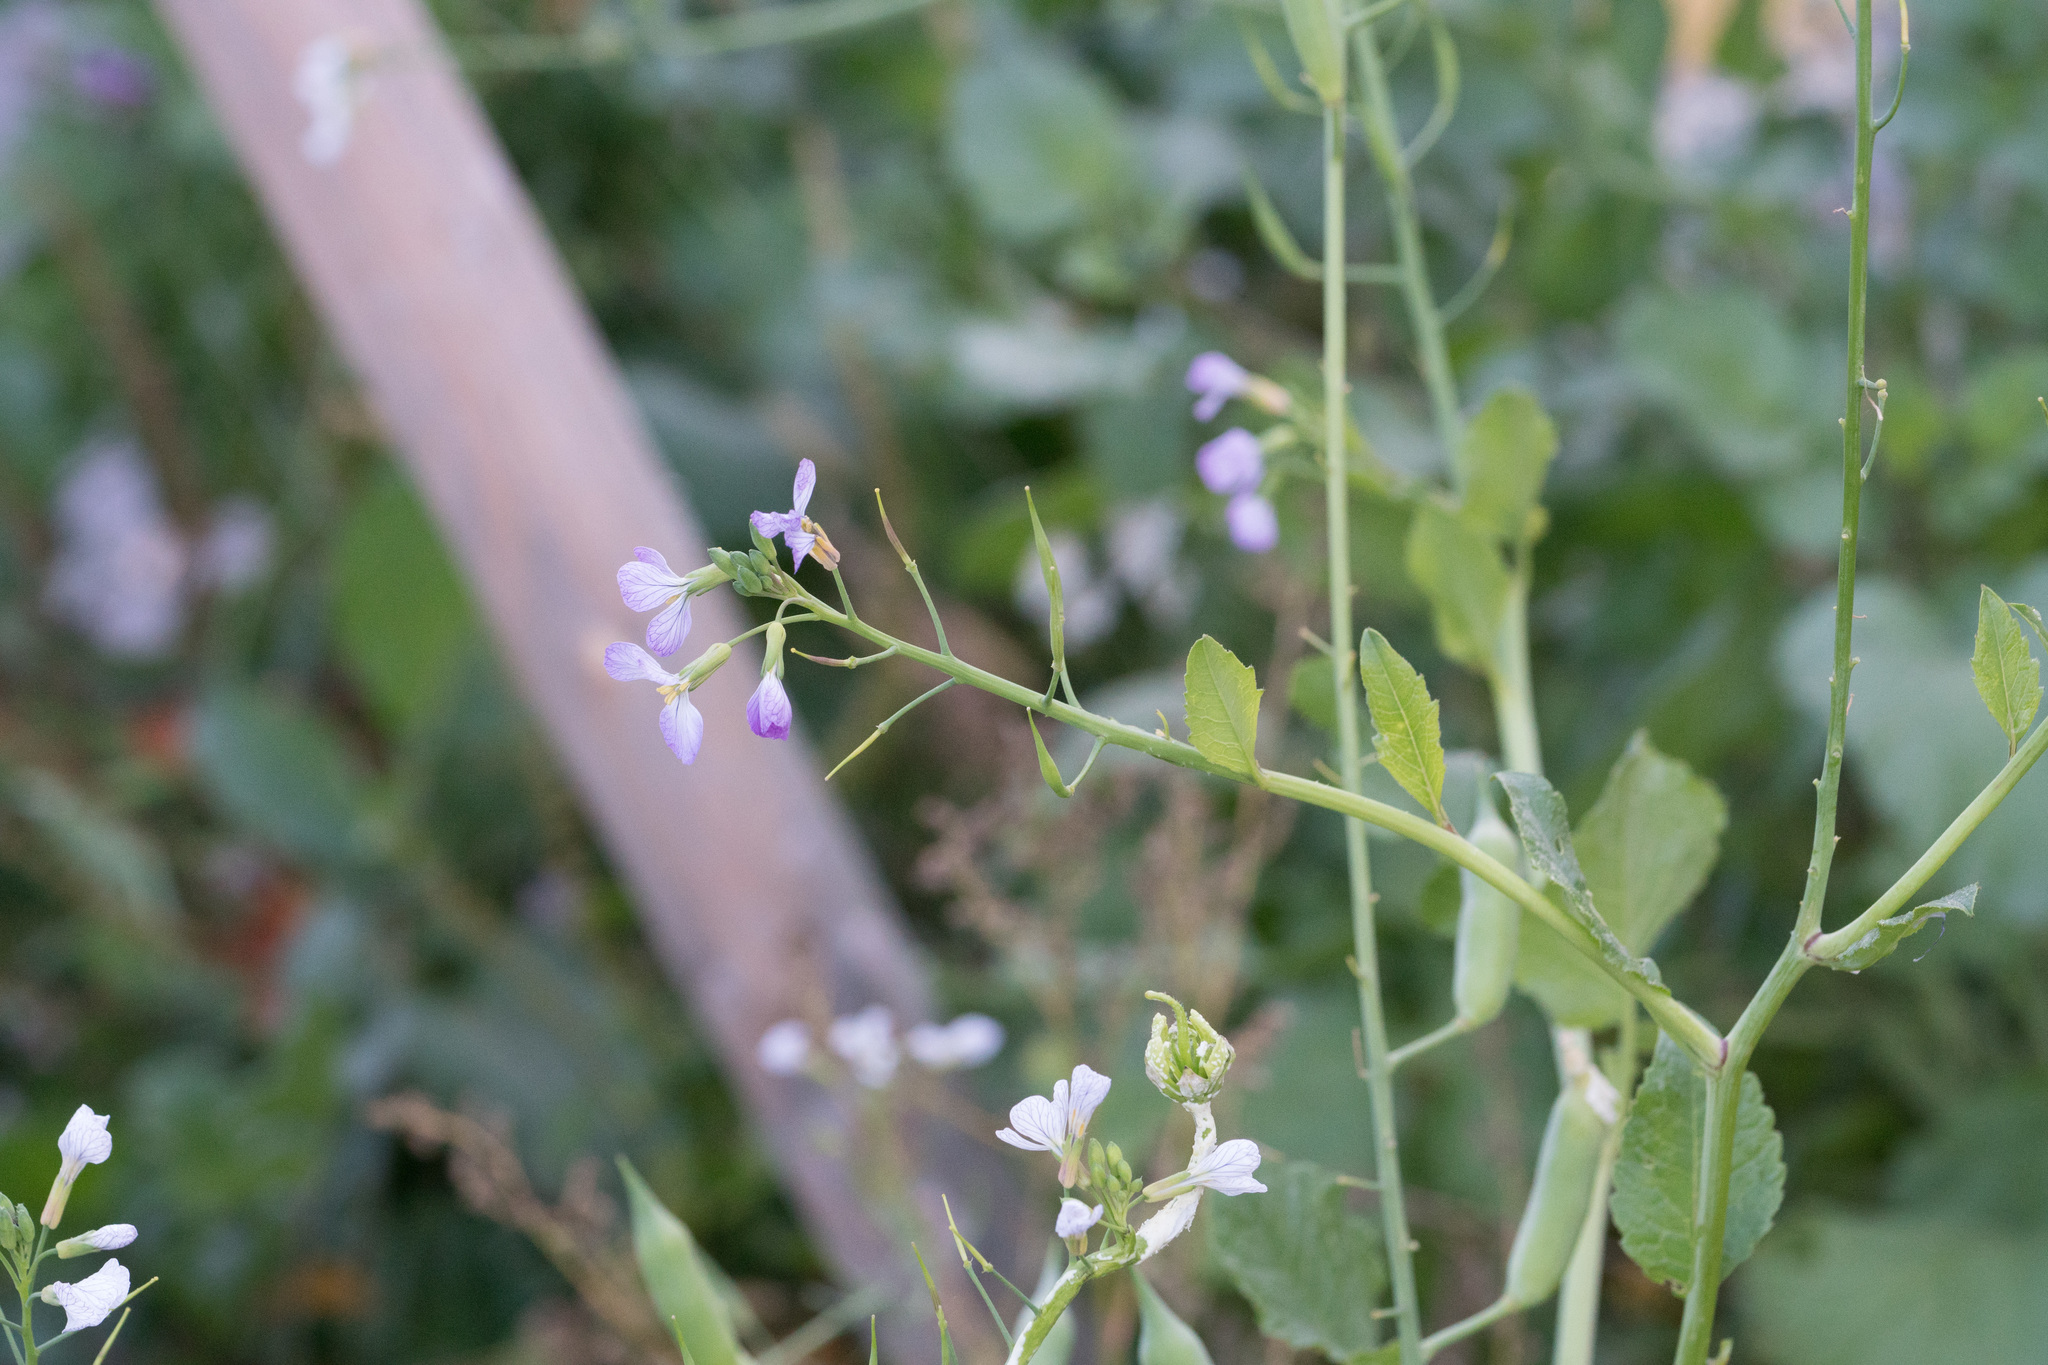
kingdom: Plantae
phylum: Tracheophyta
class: Magnoliopsida
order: Brassicales
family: Brassicaceae
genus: Raphanus
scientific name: Raphanus sativus
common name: Cultivated radish
